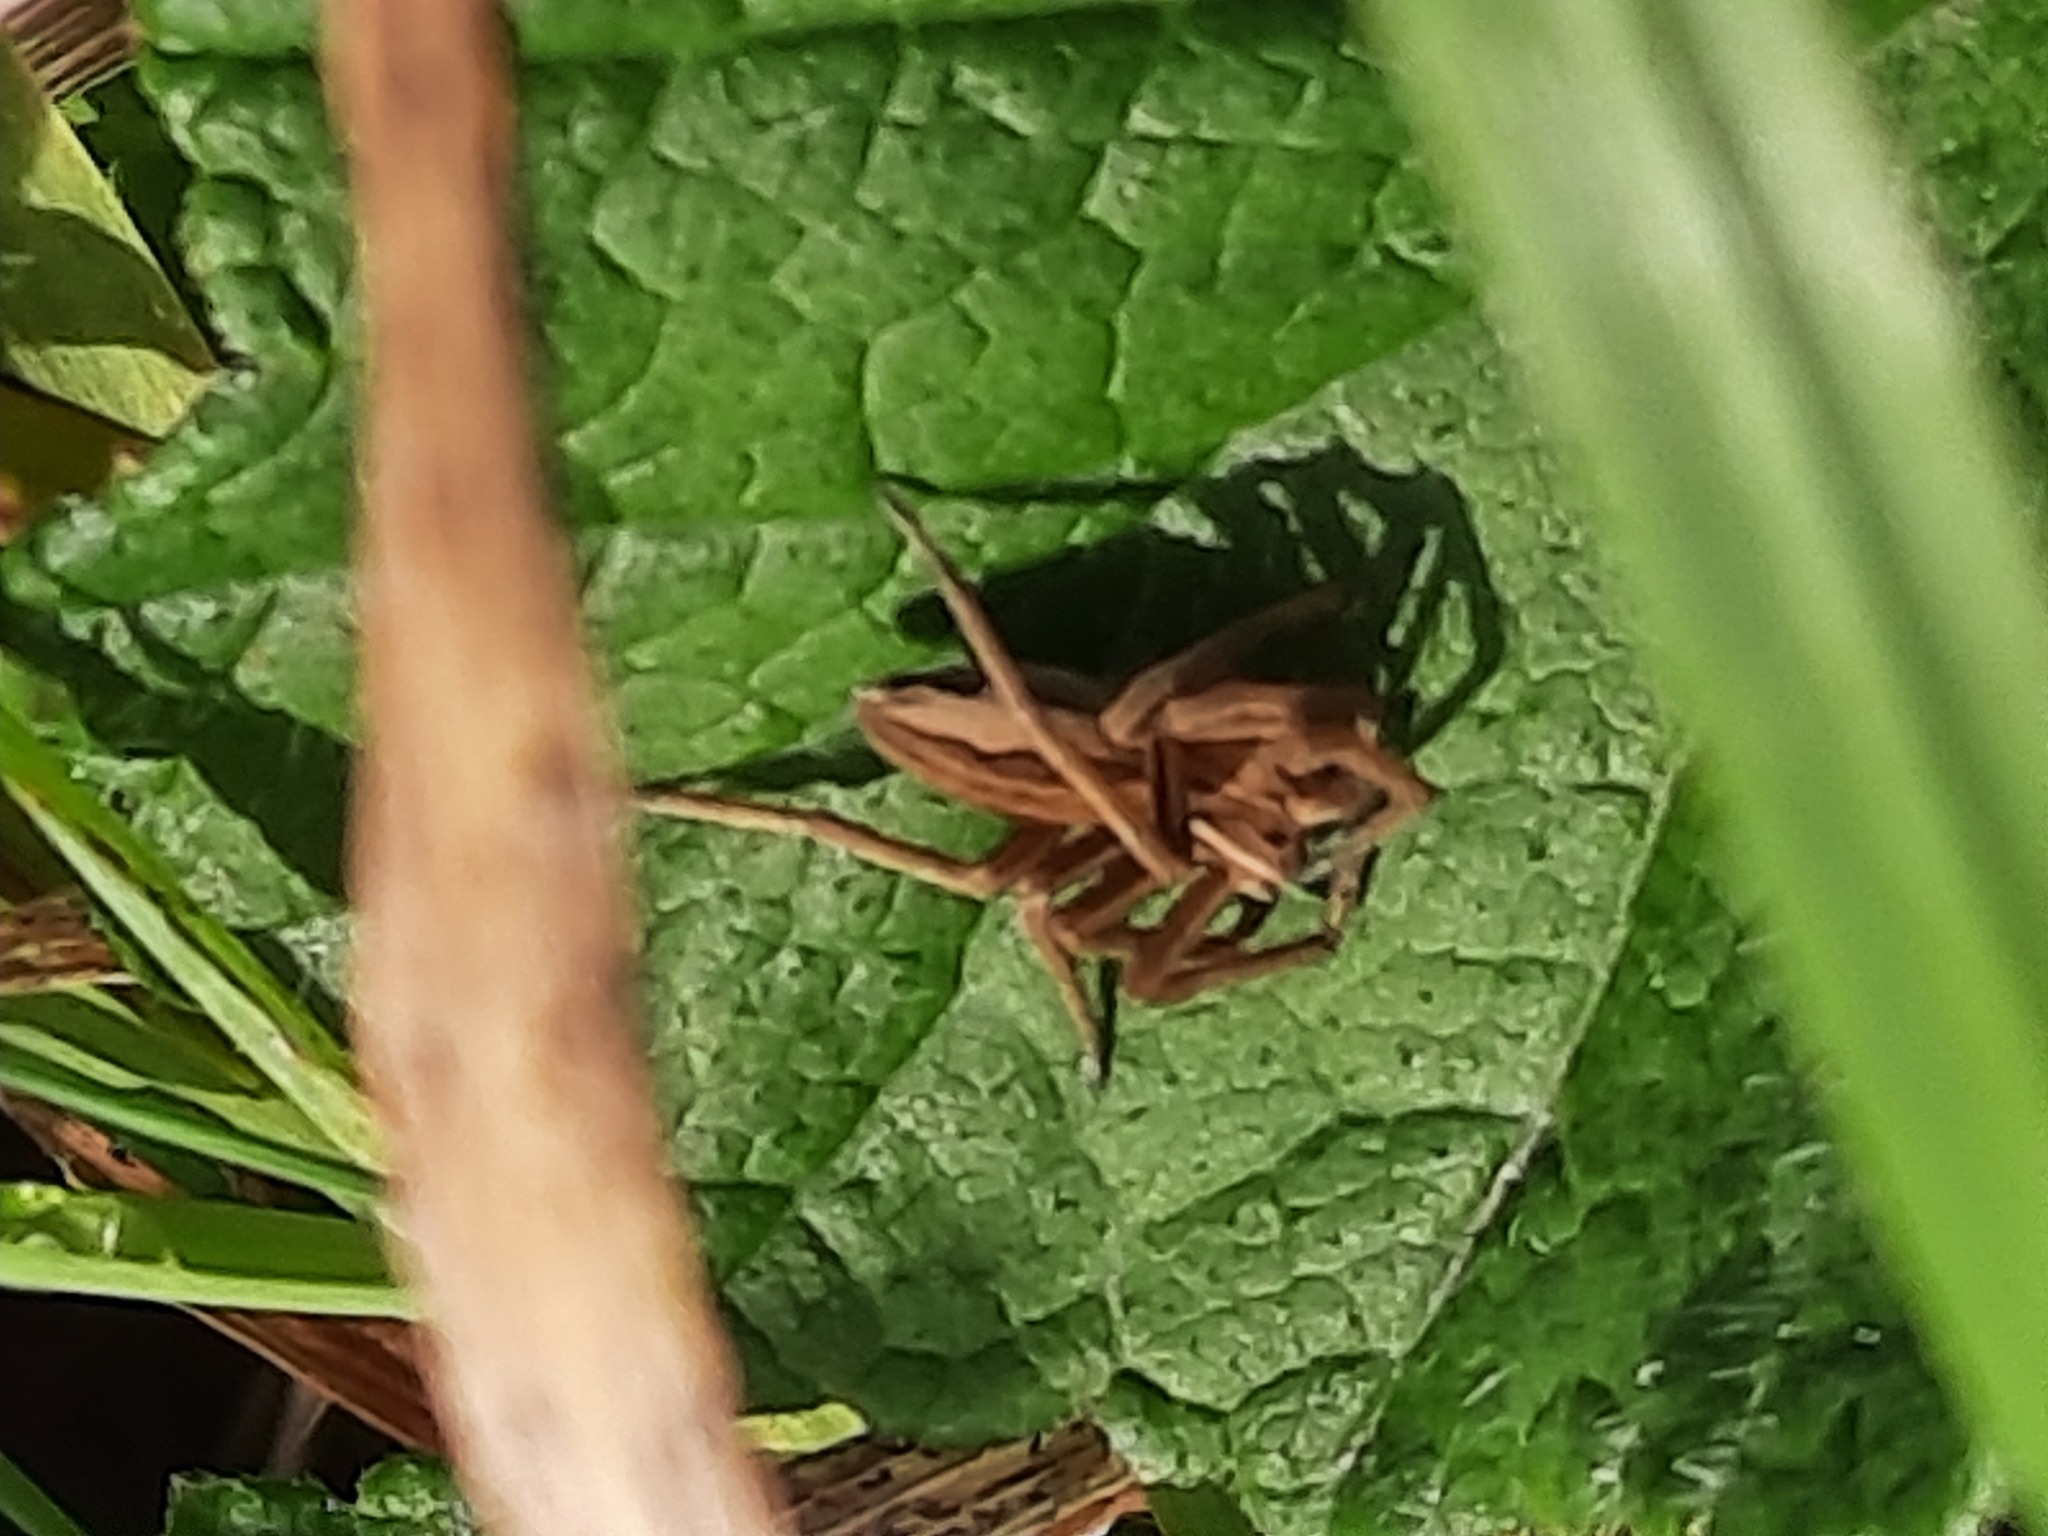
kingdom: Animalia
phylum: Arthropoda
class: Arachnida
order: Araneae
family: Pisauridae
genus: Pisaura
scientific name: Pisaura mirabilis
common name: Tent spider
